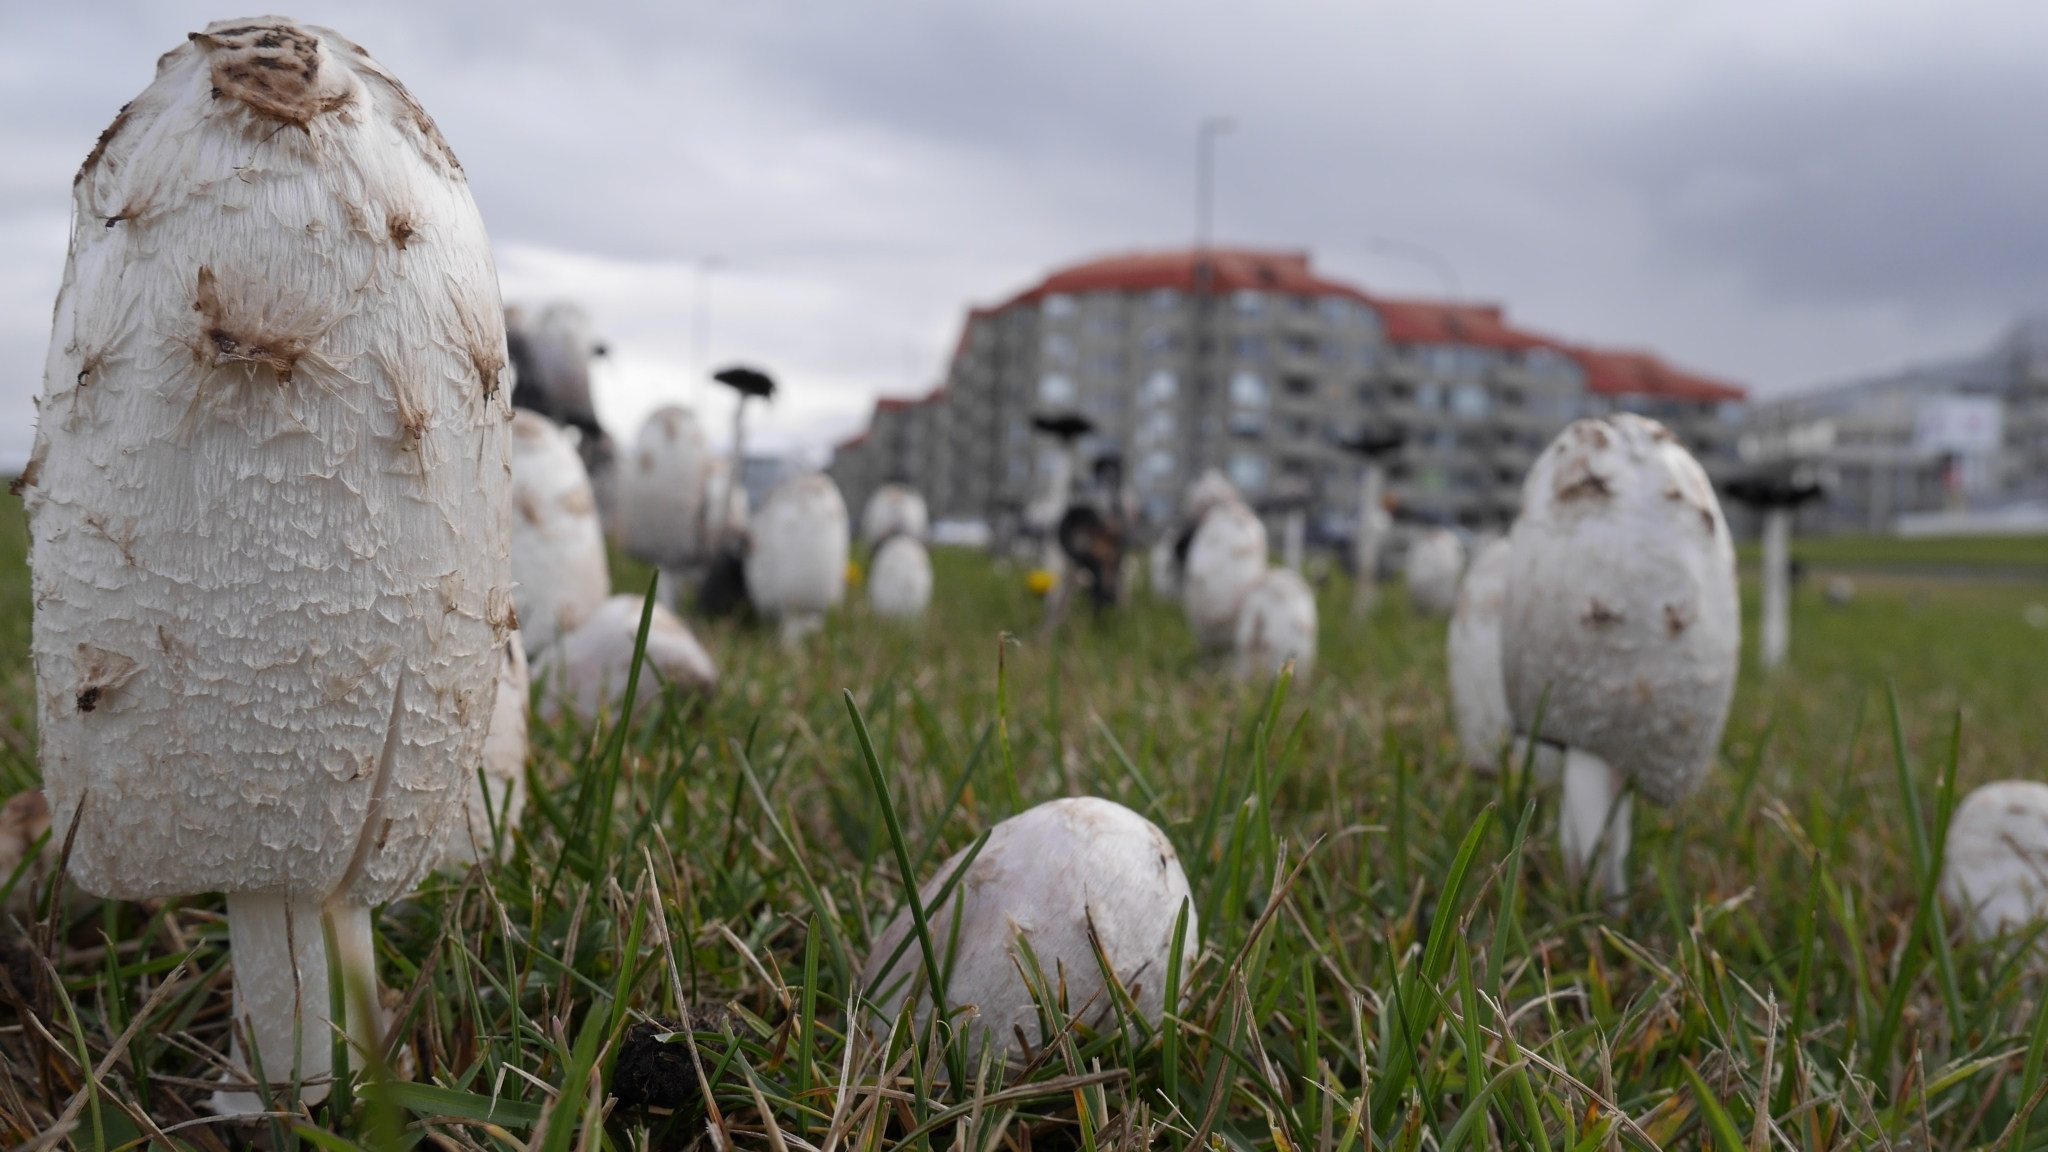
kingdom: Fungi
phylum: Basidiomycota
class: Agaricomycetes
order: Agaricales
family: Agaricaceae
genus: Coprinus
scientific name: Coprinus comatus
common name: Lawyer's wig
